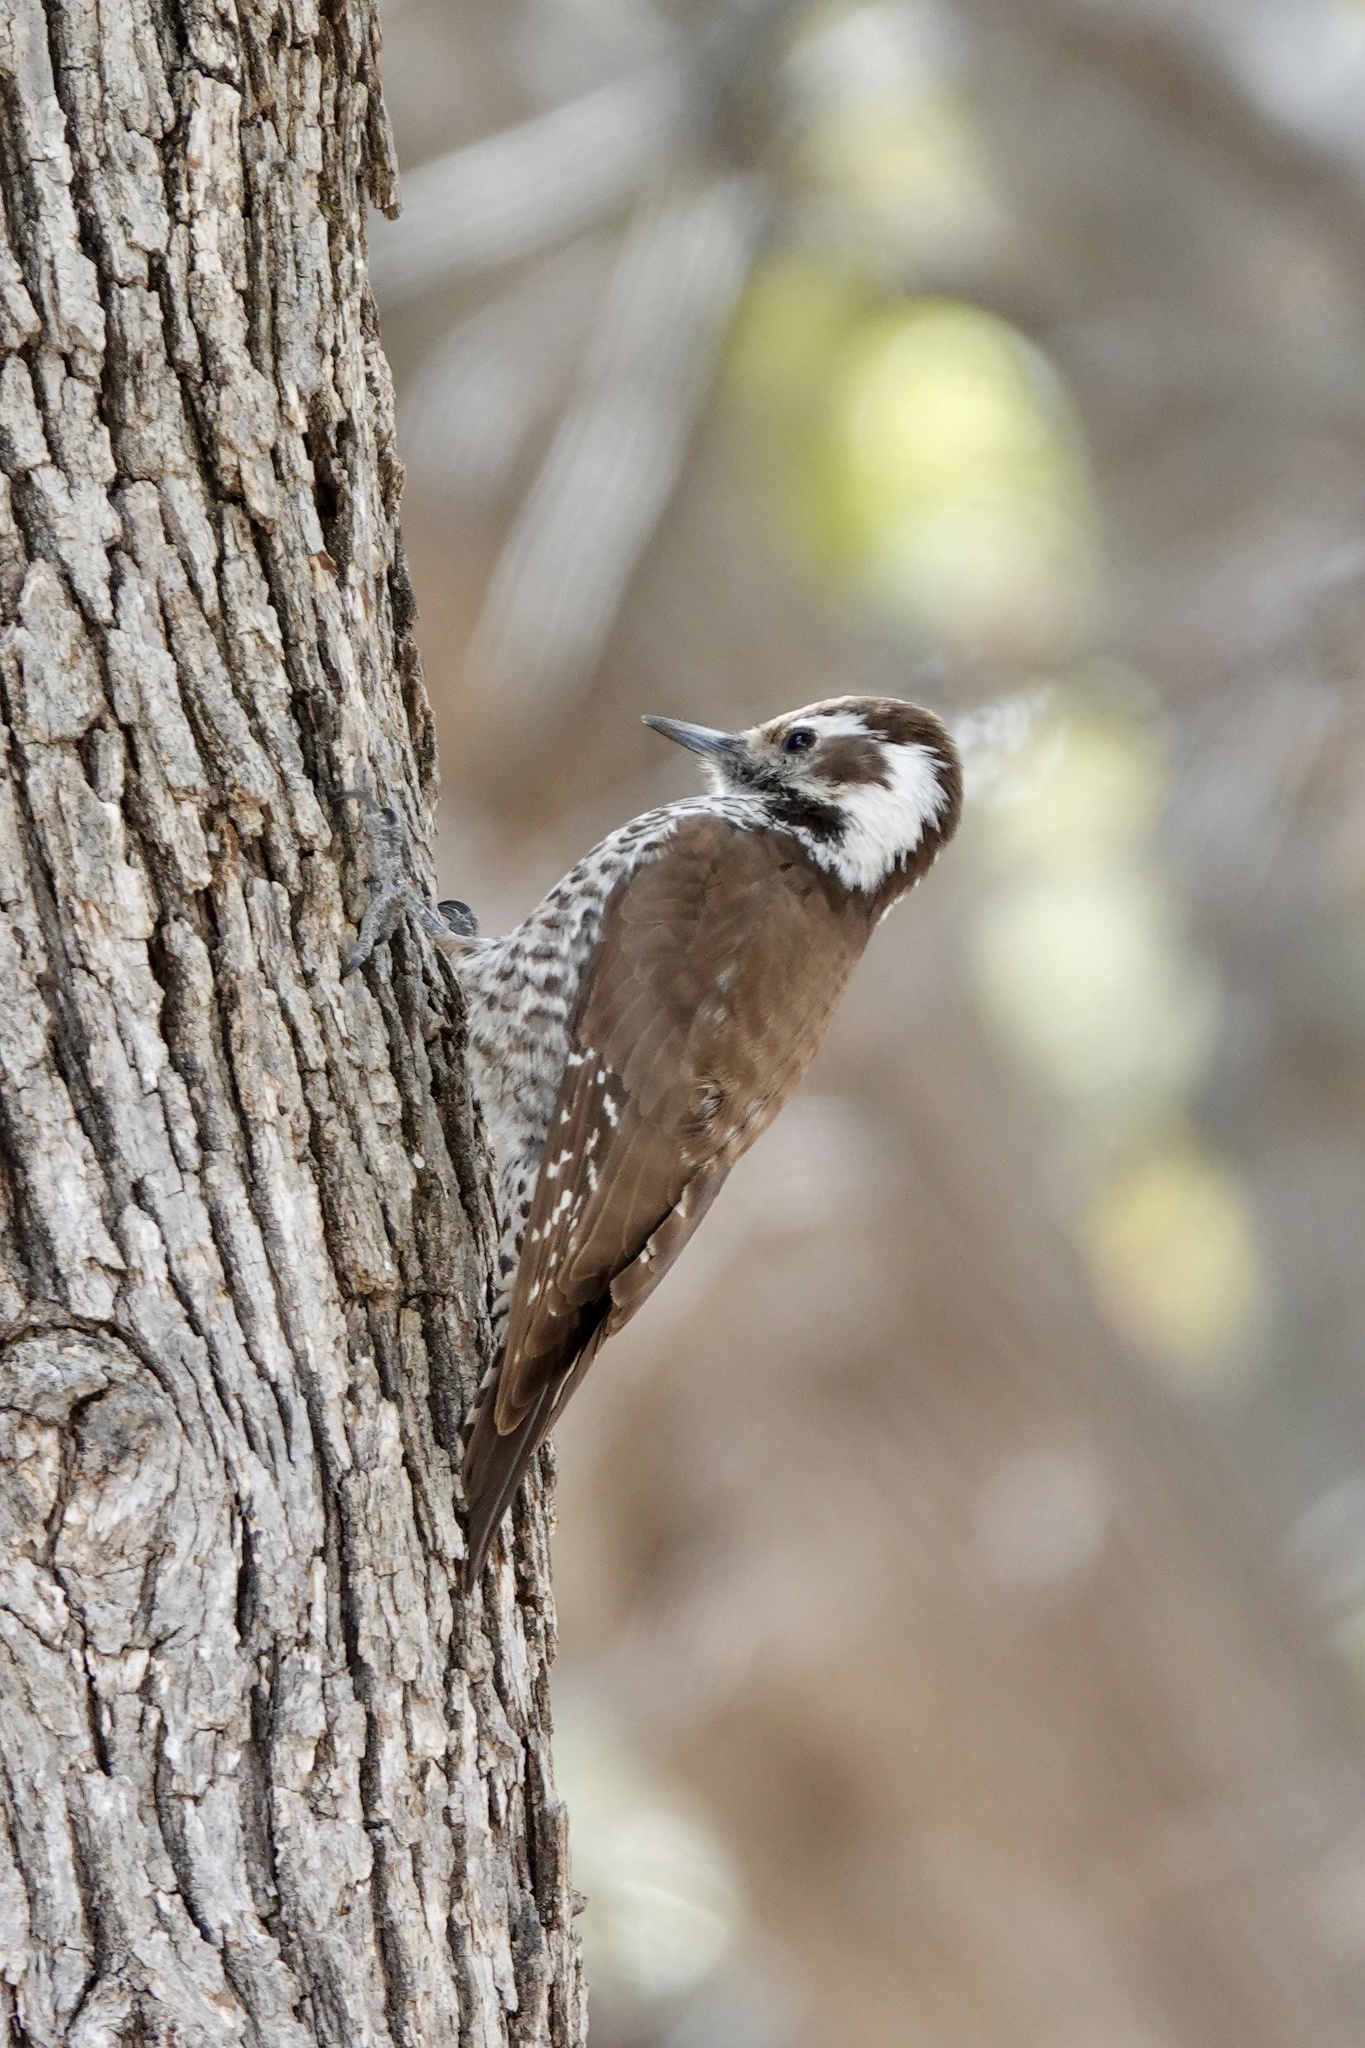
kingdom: Animalia
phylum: Chordata
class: Aves
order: Piciformes
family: Picidae
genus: Leuconotopicus
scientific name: Leuconotopicus arizonae
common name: Arizona woodpecker
